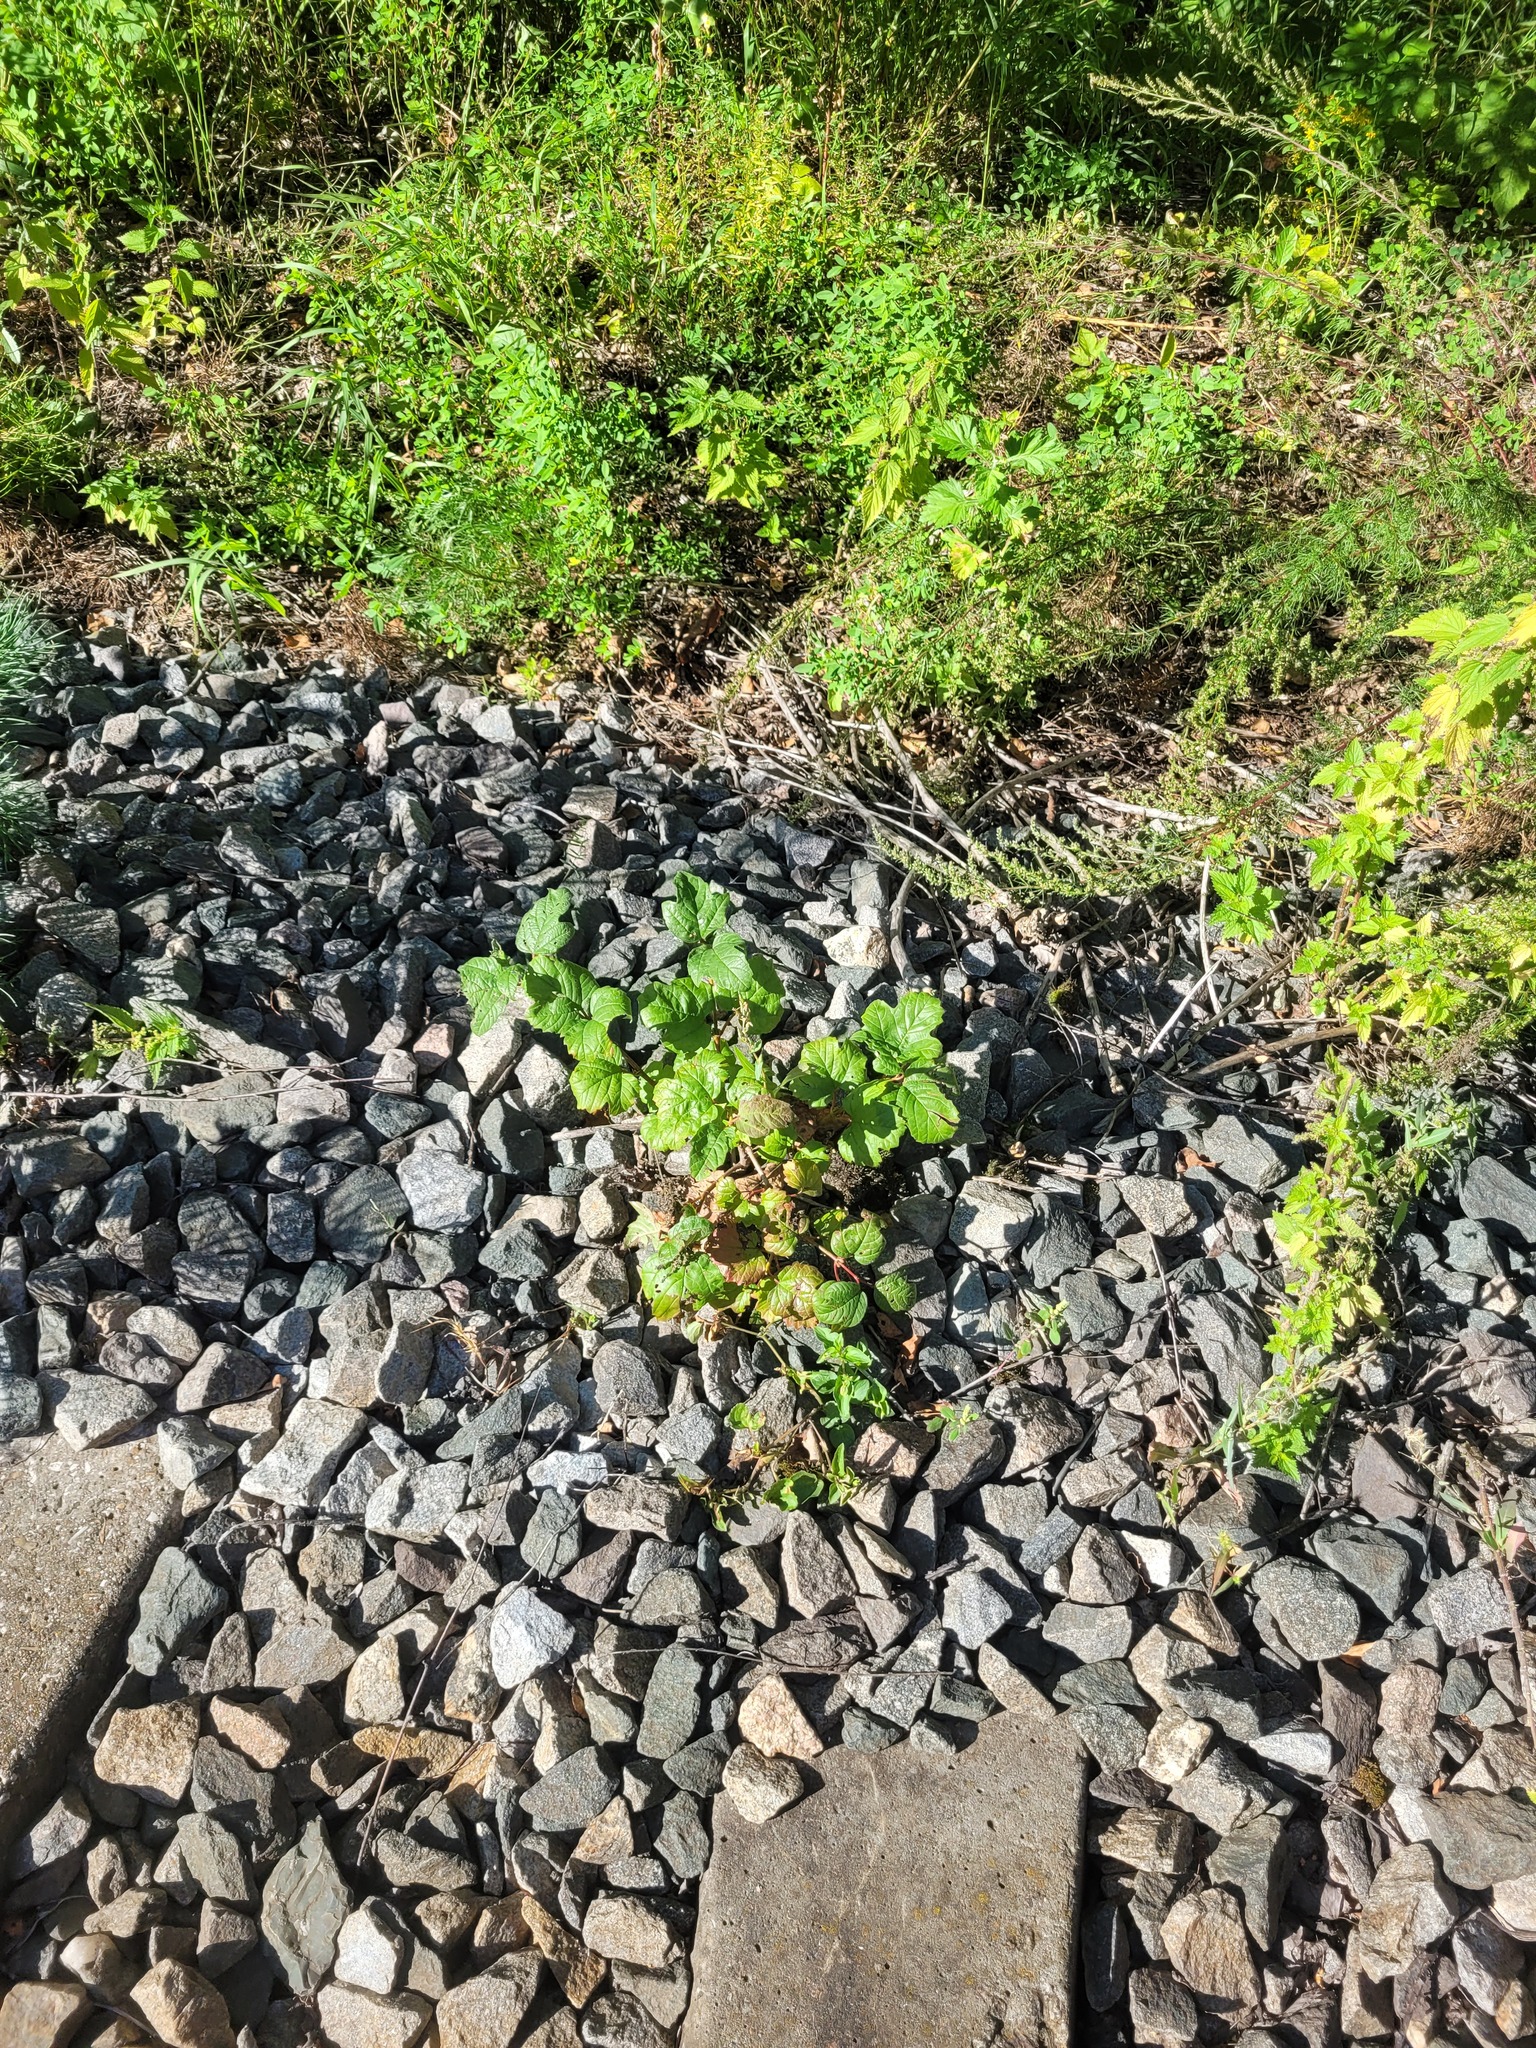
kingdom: Plantae
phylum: Tracheophyta
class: Magnoliopsida
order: Dipsacales
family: Viburnaceae
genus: Viburnum
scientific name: Viburnum opulus
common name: Guelder-rose
